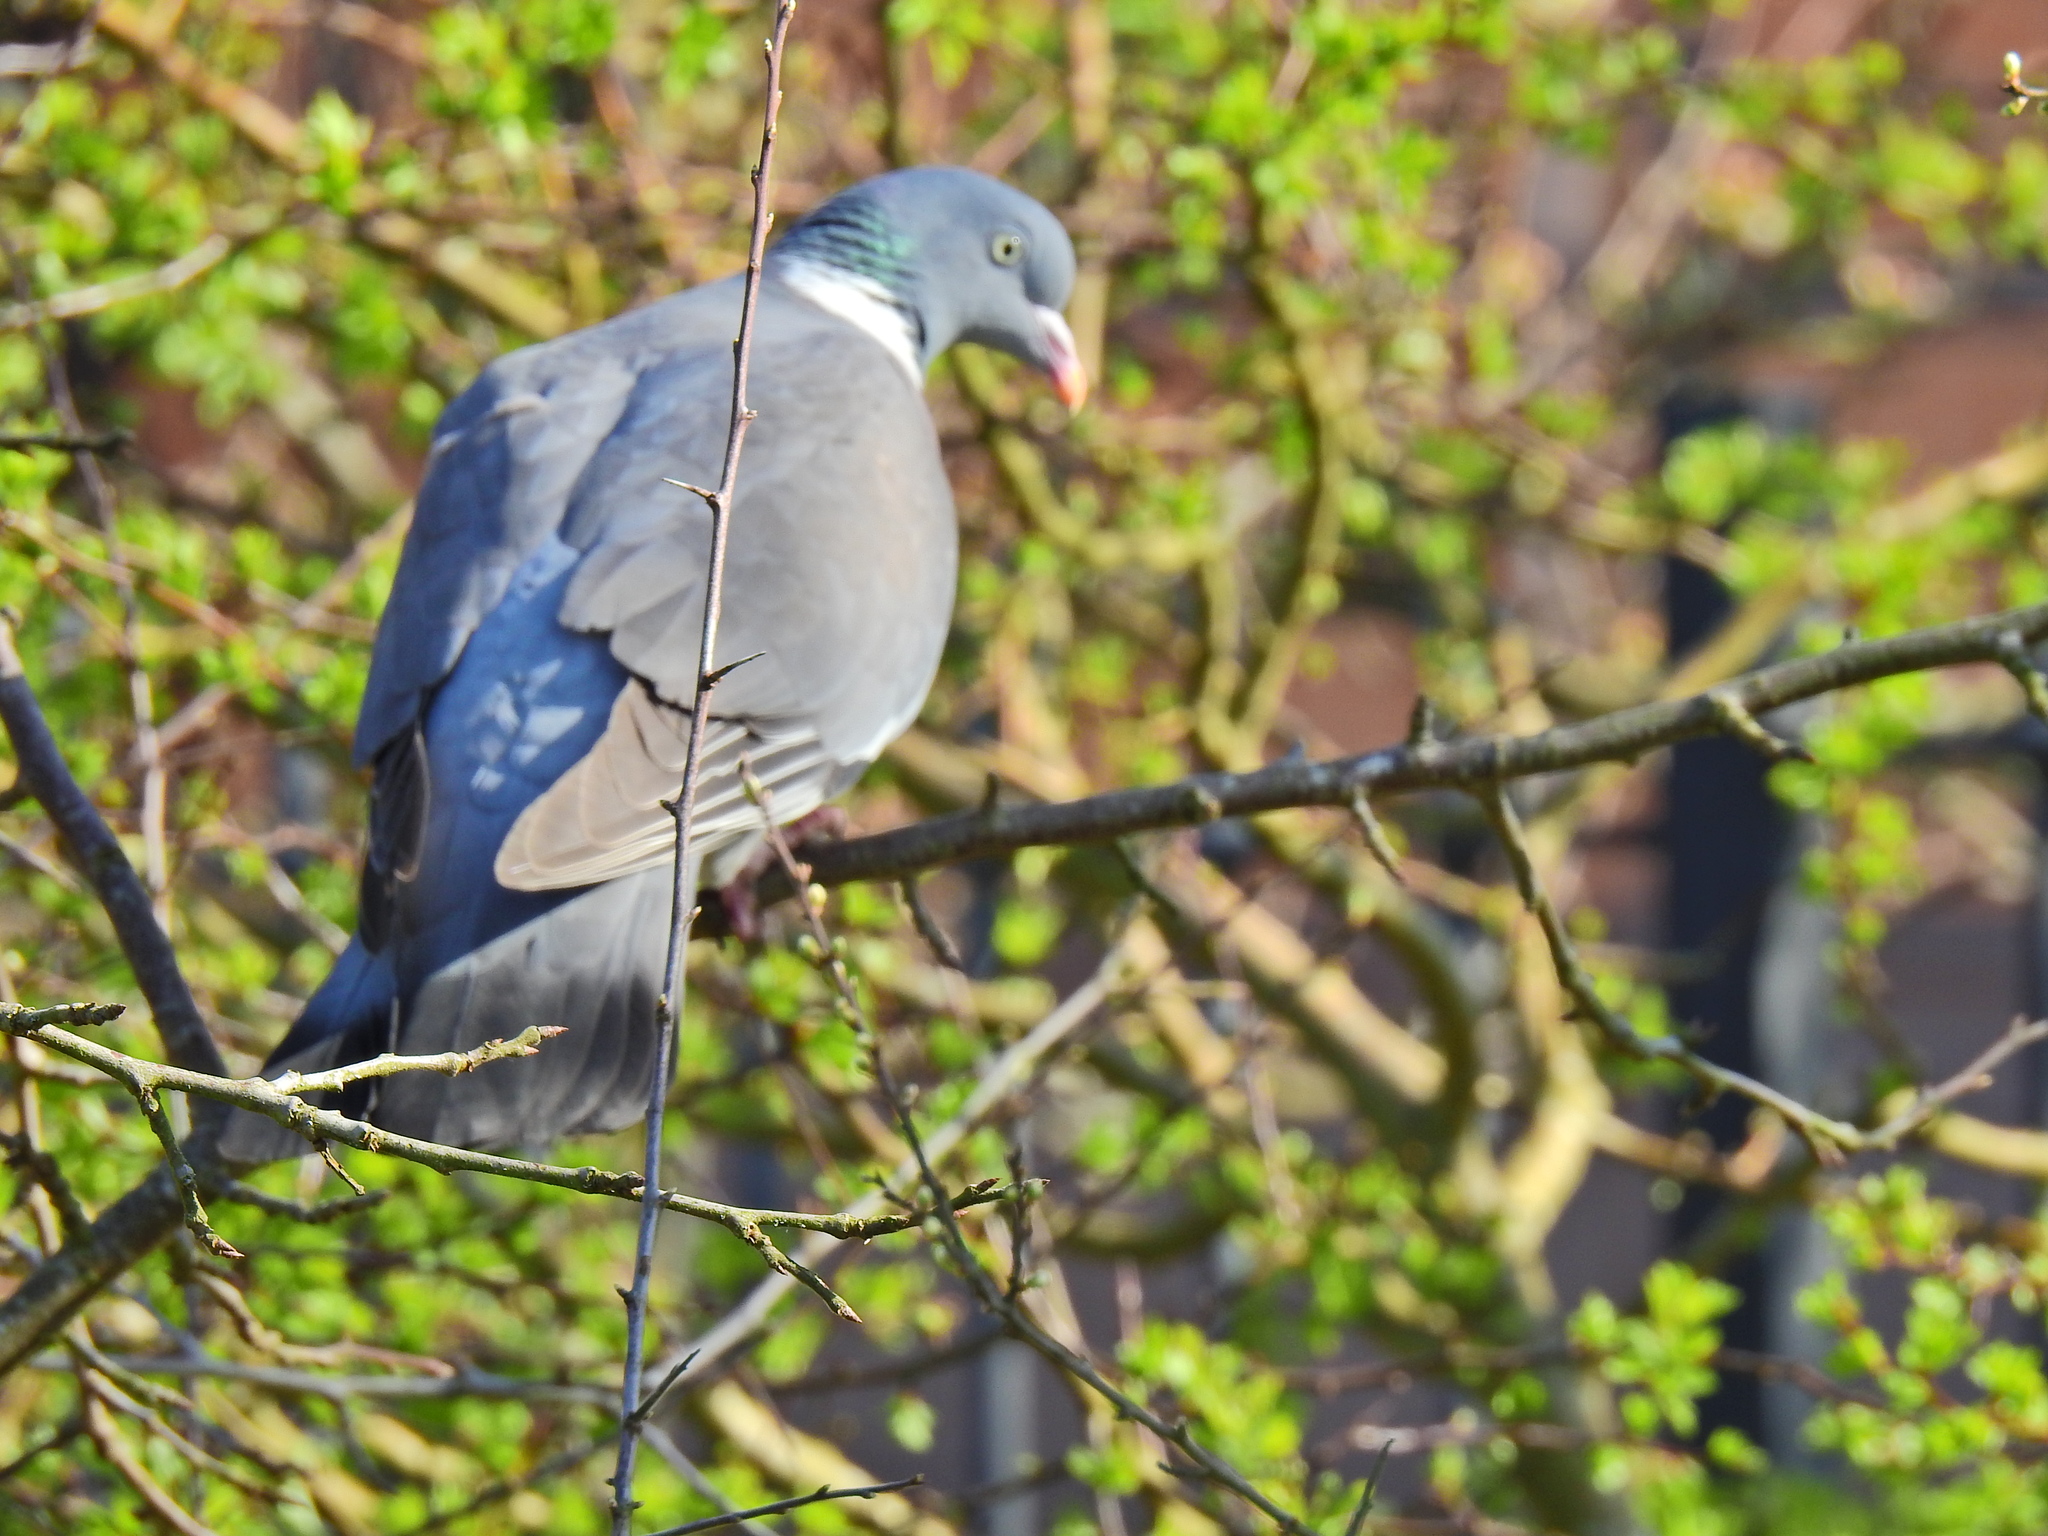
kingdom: Animalia
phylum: Chordata
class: Aves
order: Columbiformes
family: Columbidae
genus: Columba
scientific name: Columba palumbus
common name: Common wood pigeon
